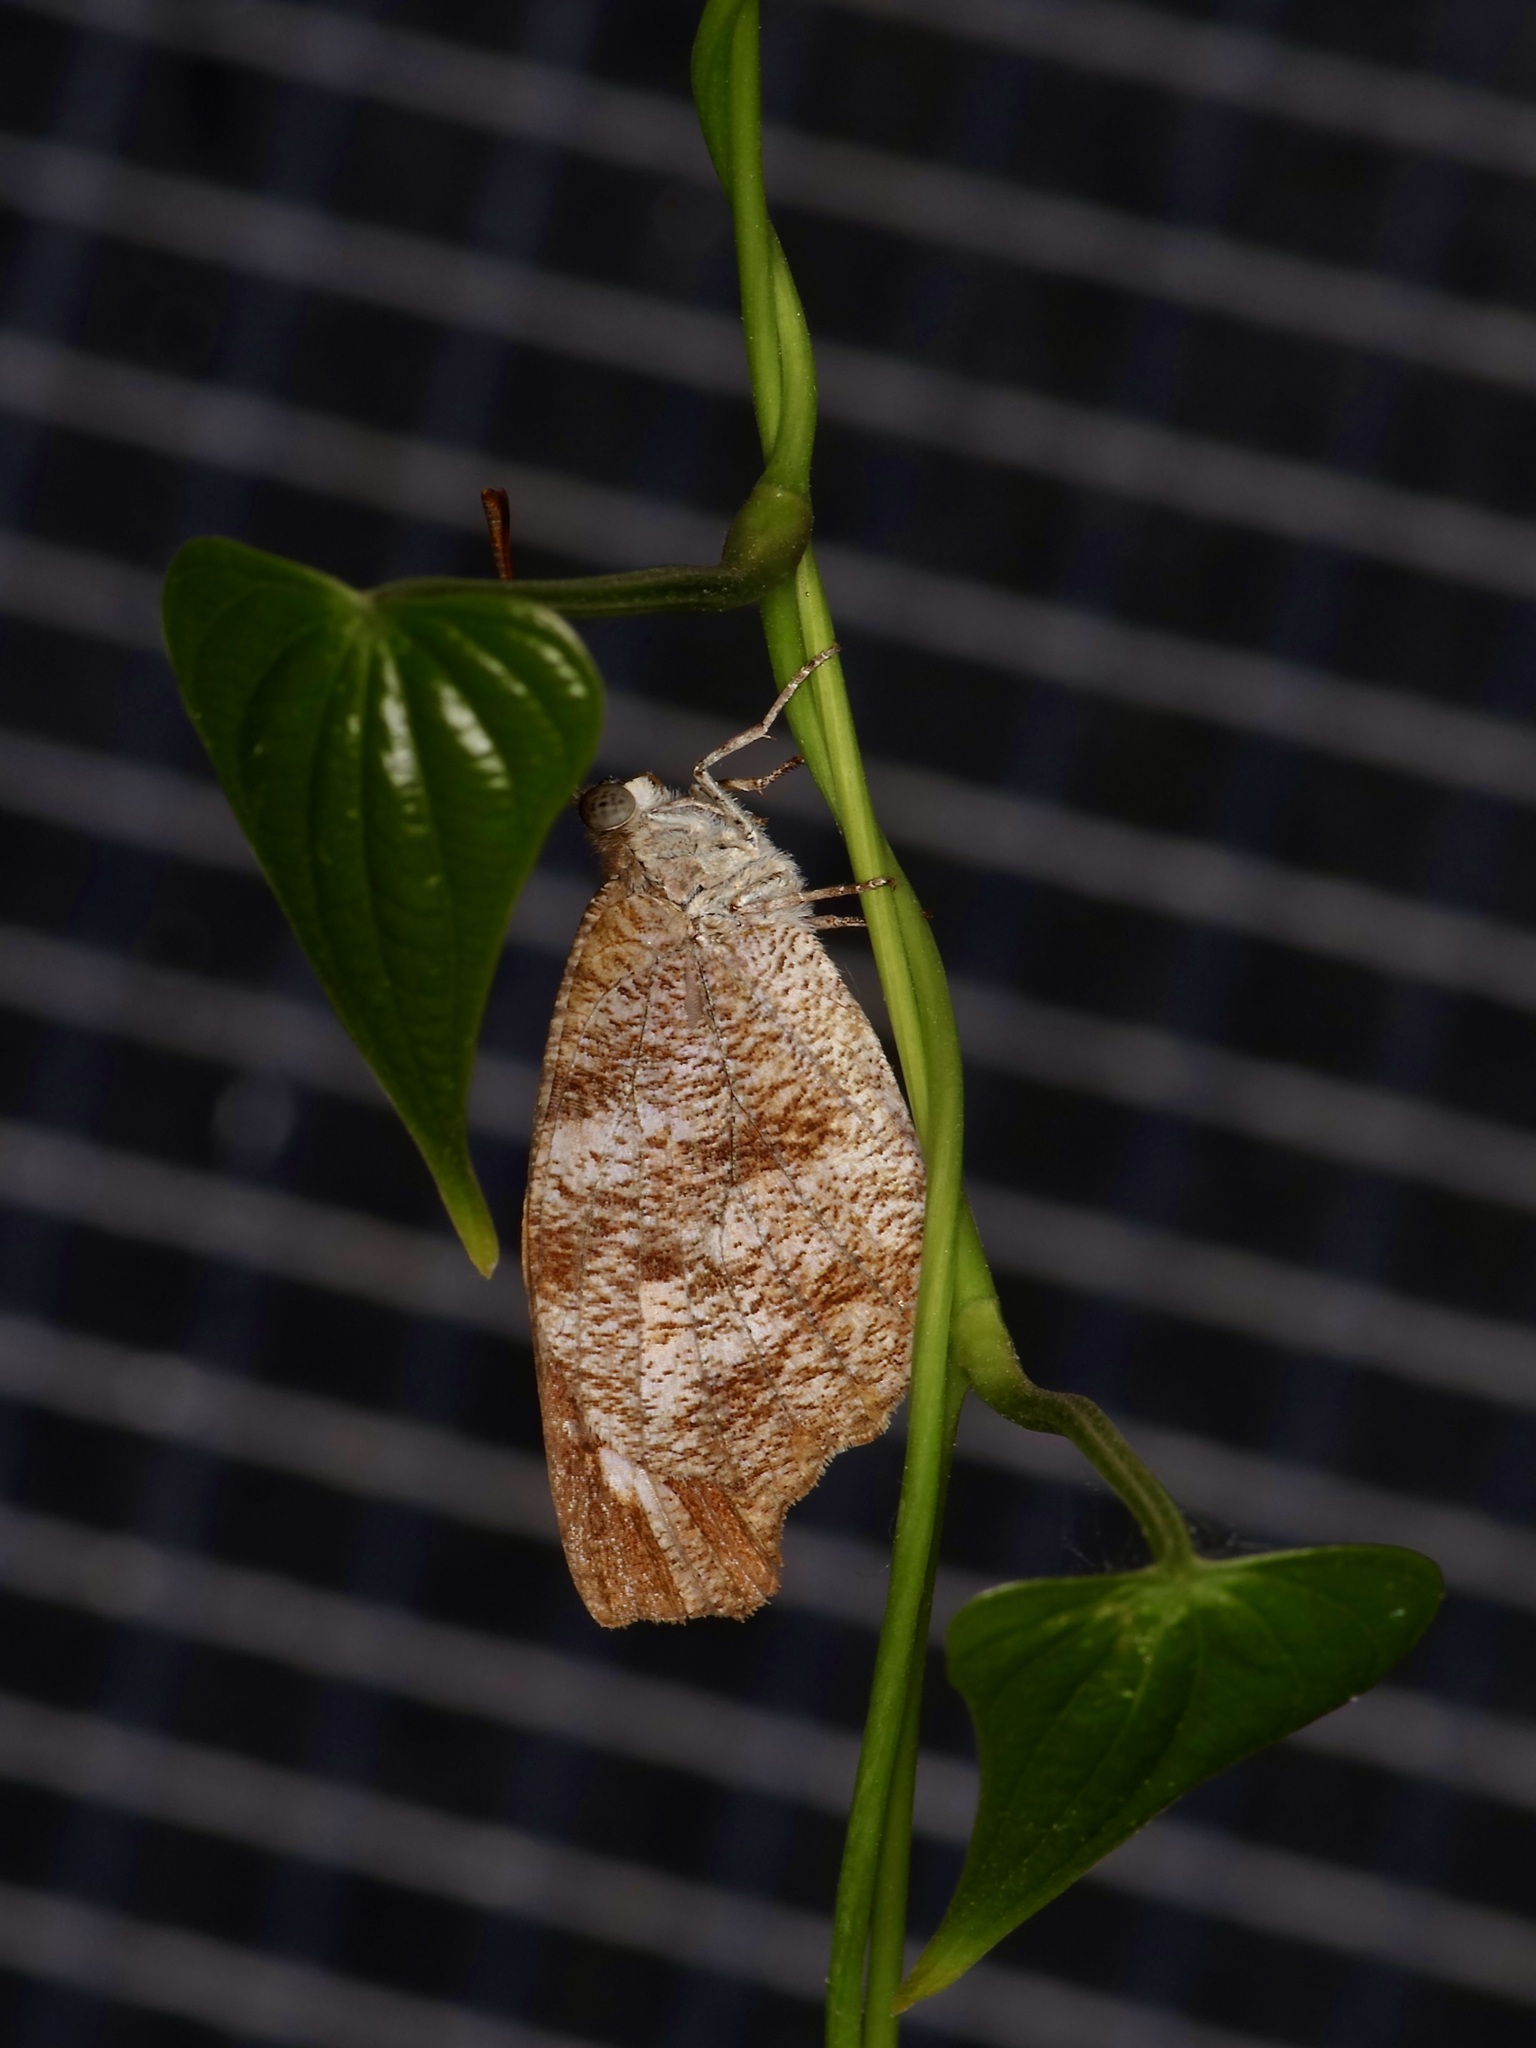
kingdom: Animalia
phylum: Arthropoda
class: Insecta
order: Lepidoptera
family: Nymphalidae
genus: Libytheana
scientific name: Libytheana carinenta
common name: American snout
